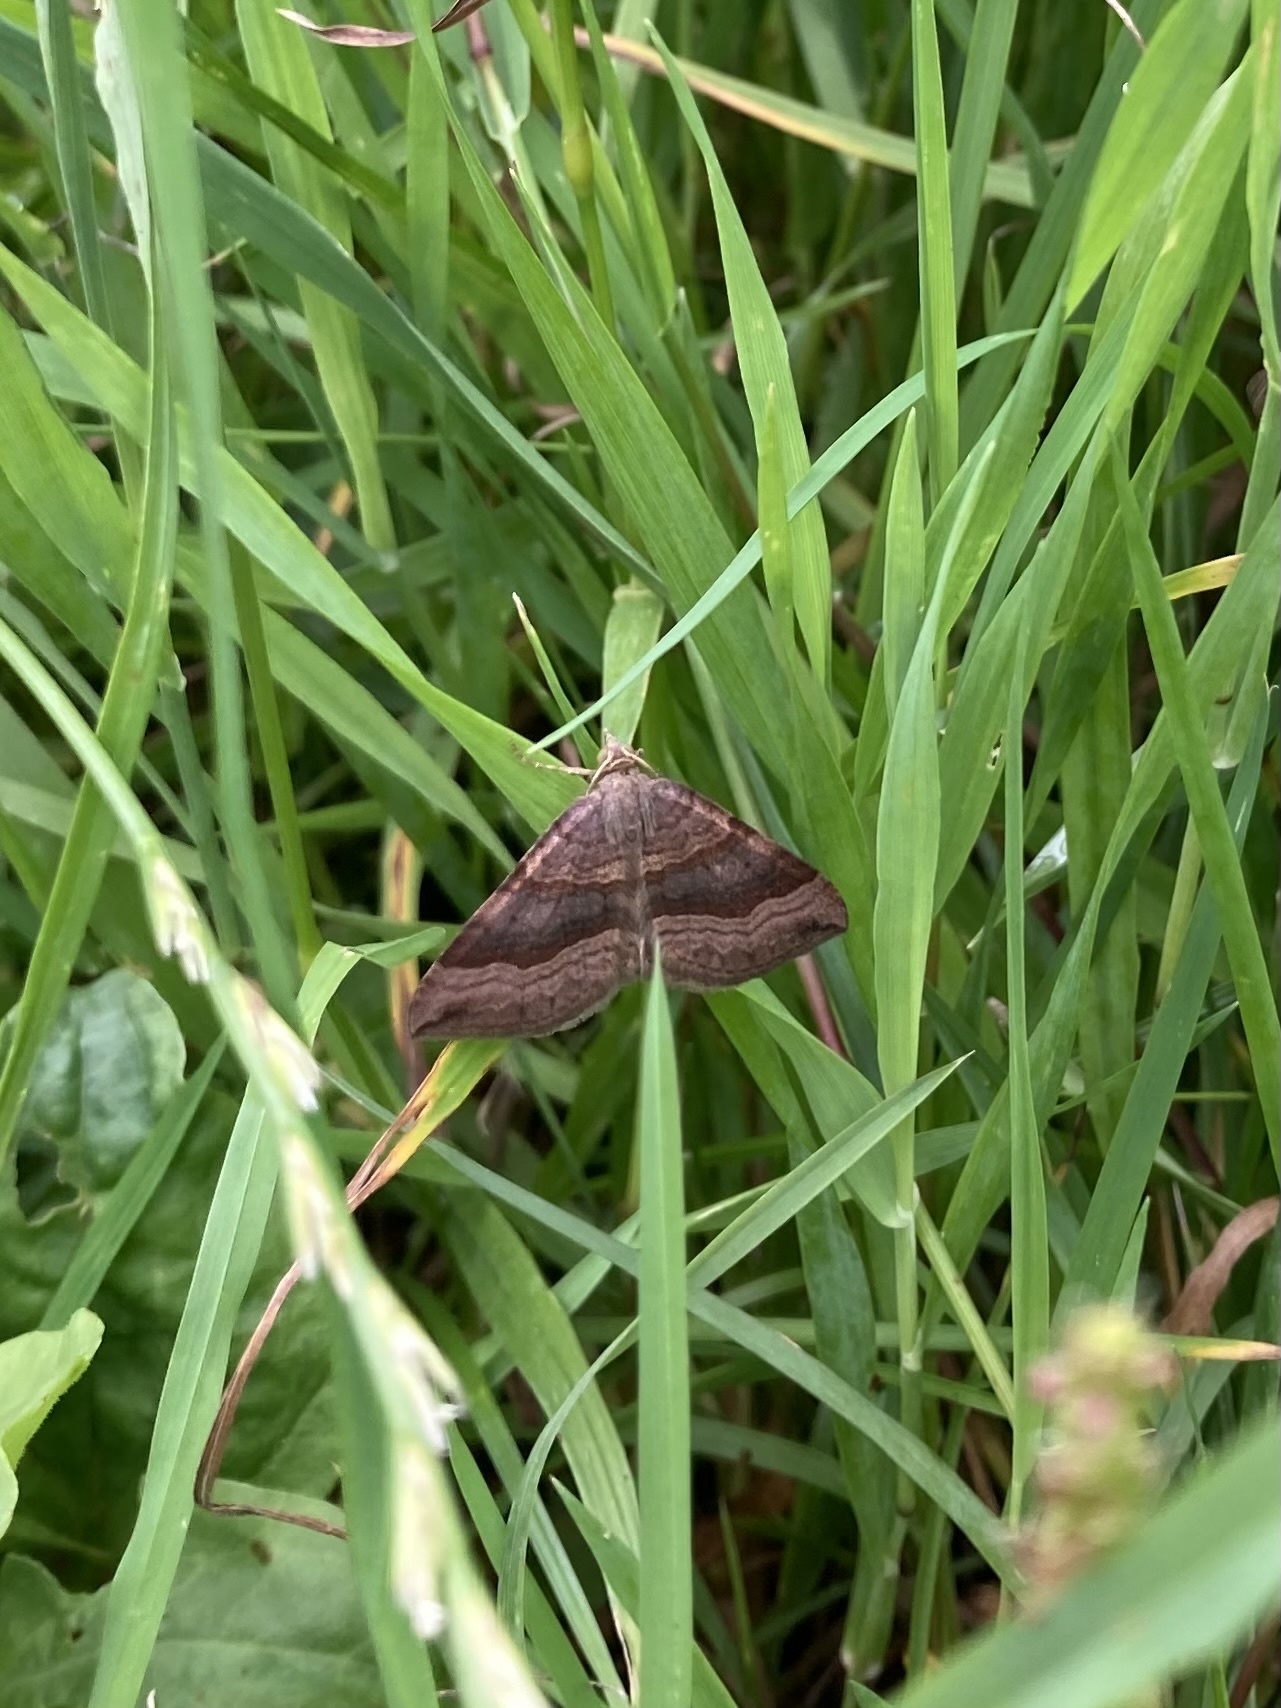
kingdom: Animalia
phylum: Arthropoda
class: Insecta
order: Lepidoptera
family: Geometridae
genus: Scotopteryx
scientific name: Scotopteryx chenopodiata
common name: Shaded broad-bar
